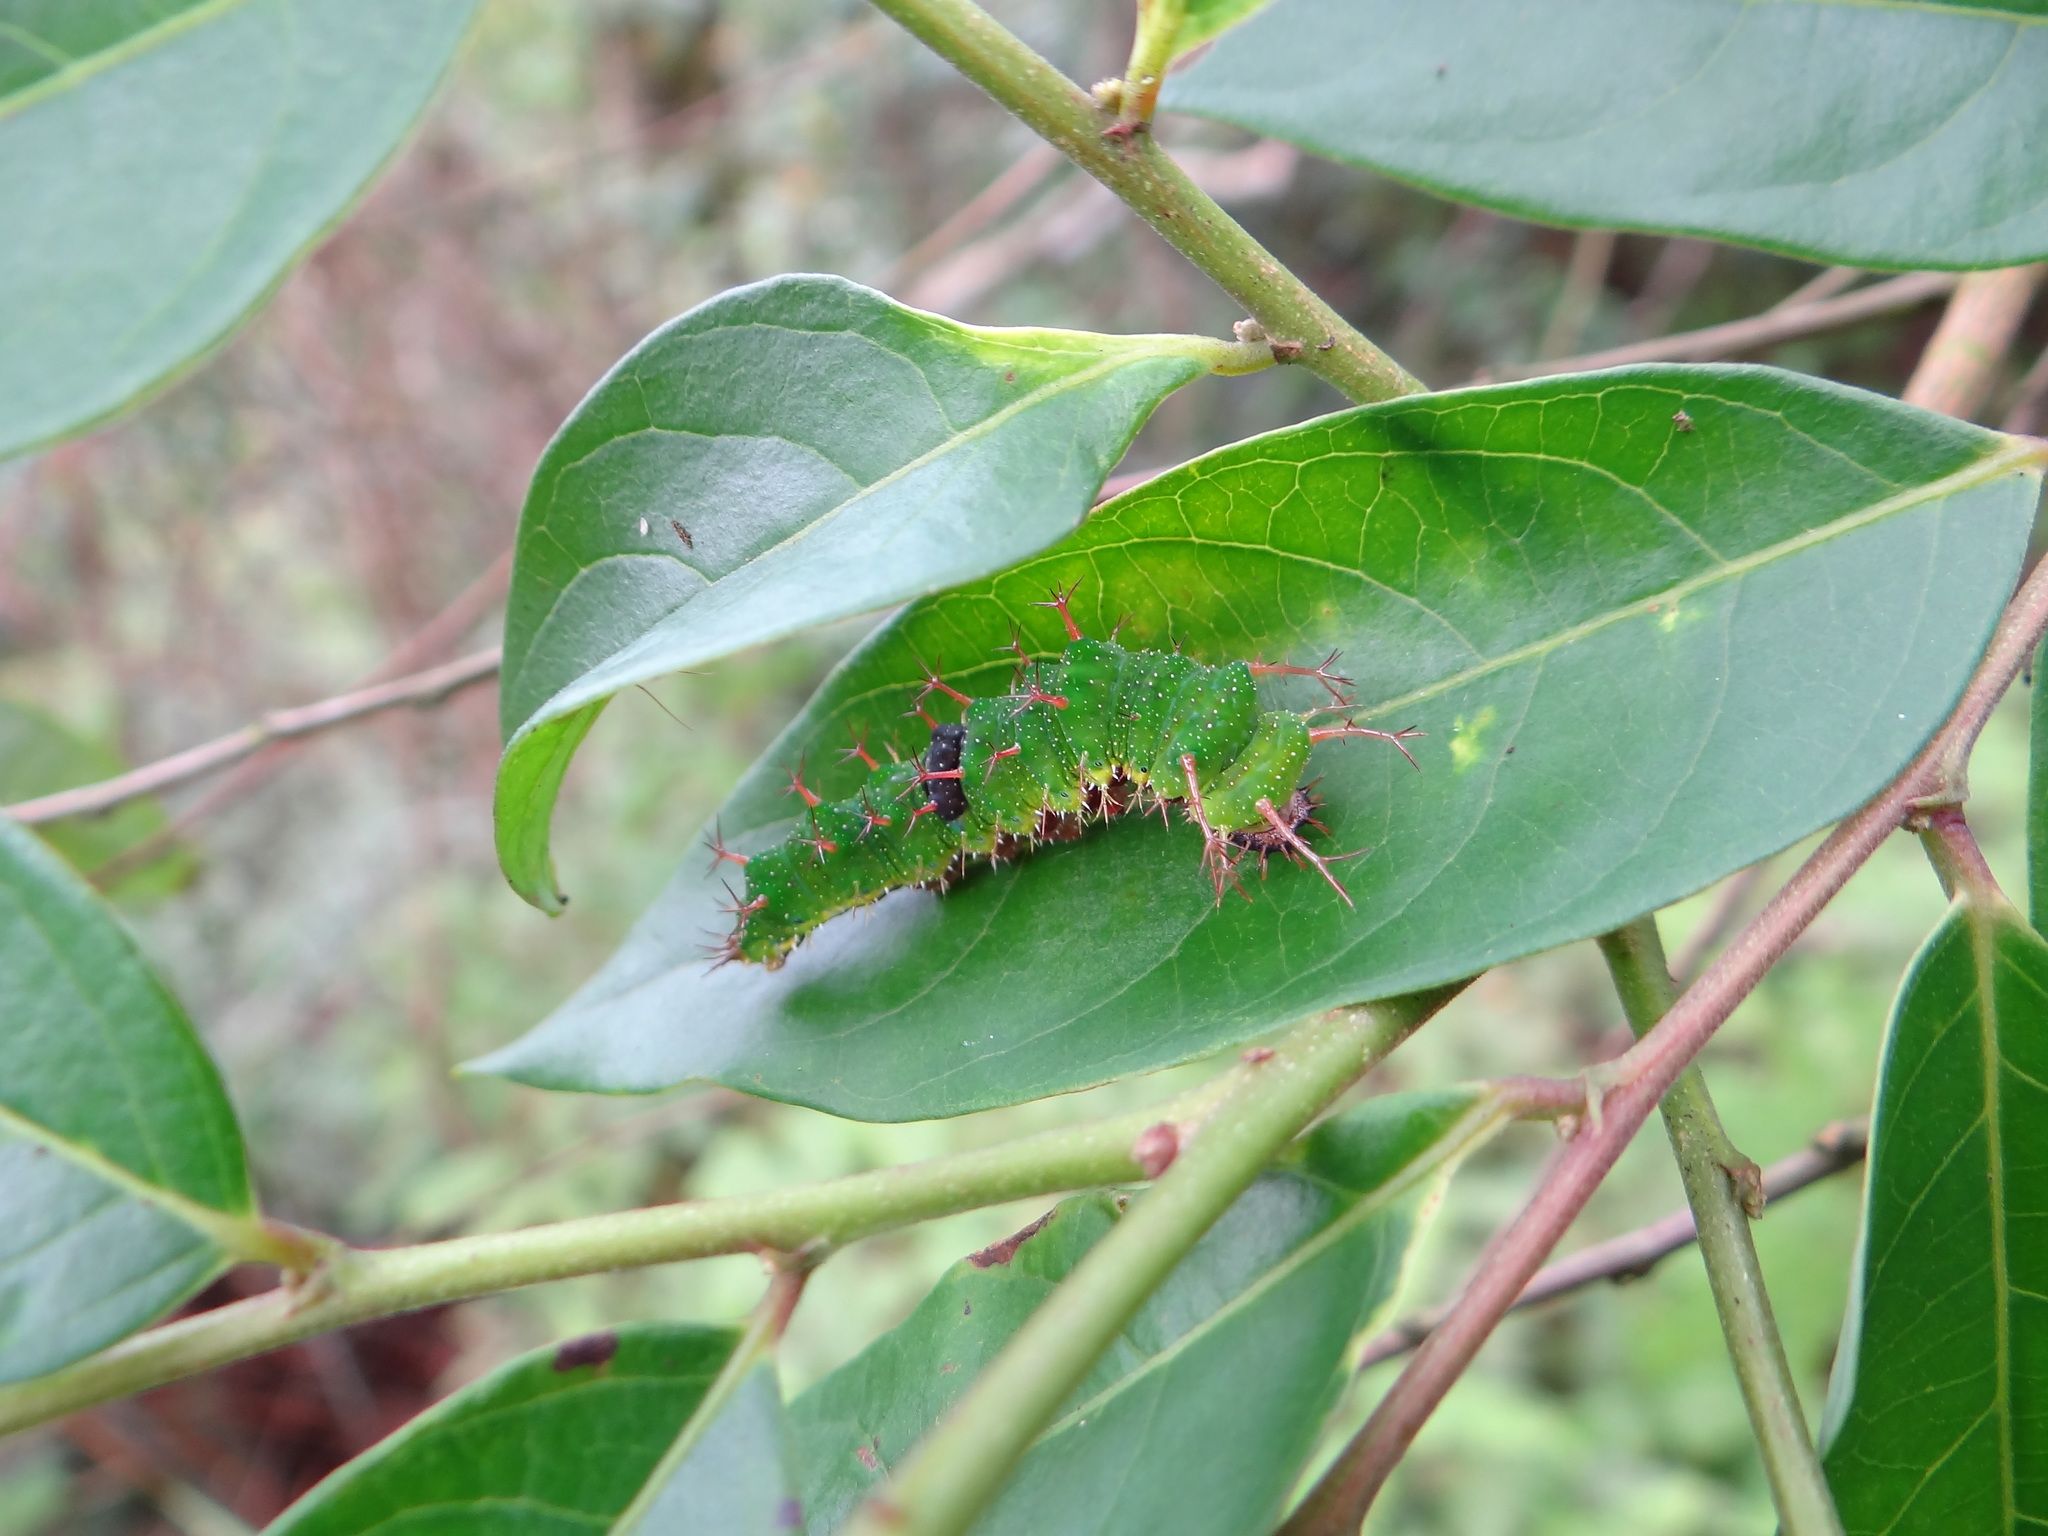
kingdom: Animalia
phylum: Arthropoda
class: Insecta
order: Lepidoptera
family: Nymphalidae
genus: Pantoporia
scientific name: Pantoporia cama
